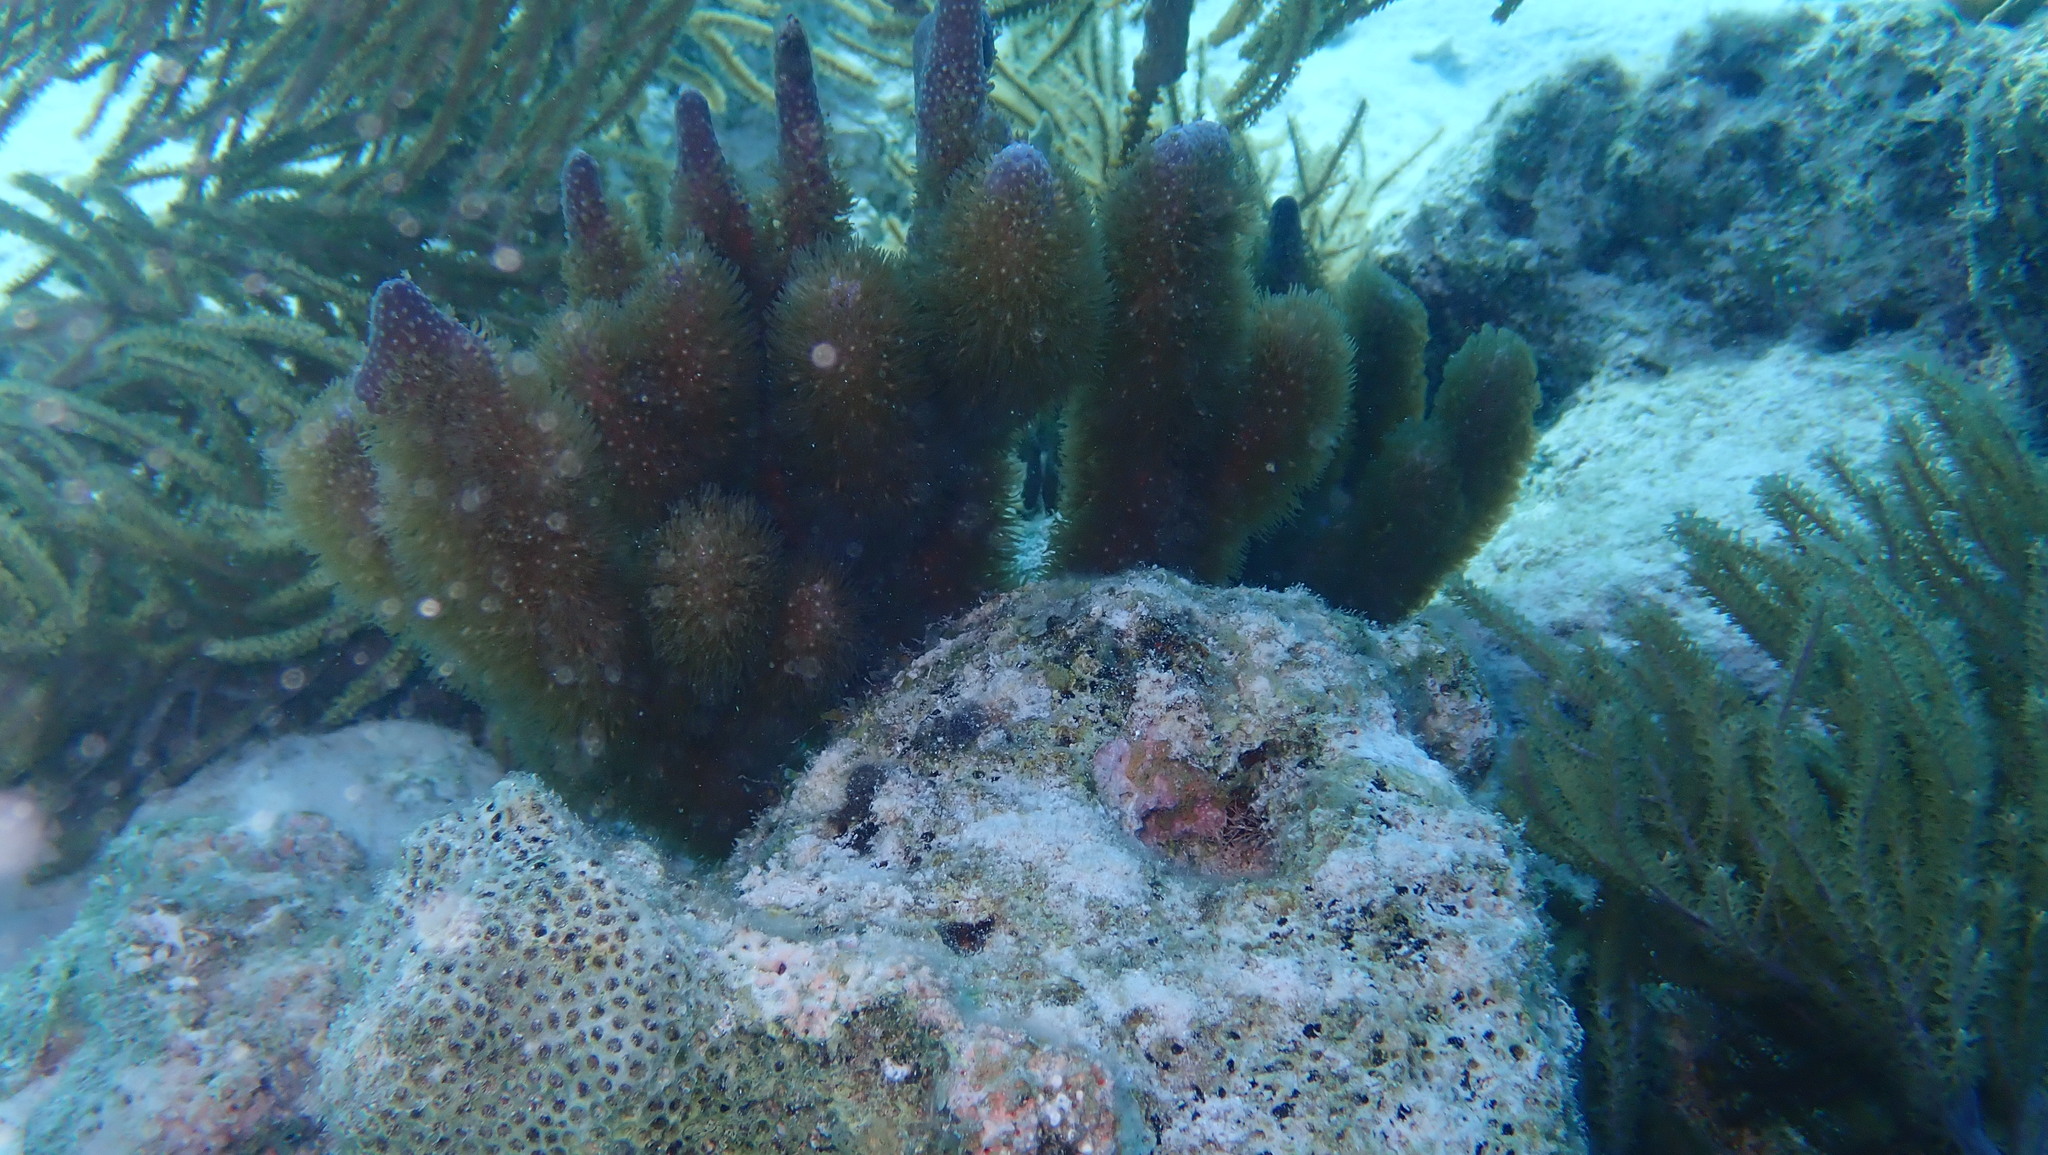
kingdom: Animalia
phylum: Cnidaria
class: Anthozoa
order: Scleralcyonacea
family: Briareidae
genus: Briareum
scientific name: Briareum asbestinum
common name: Corky sea finger
